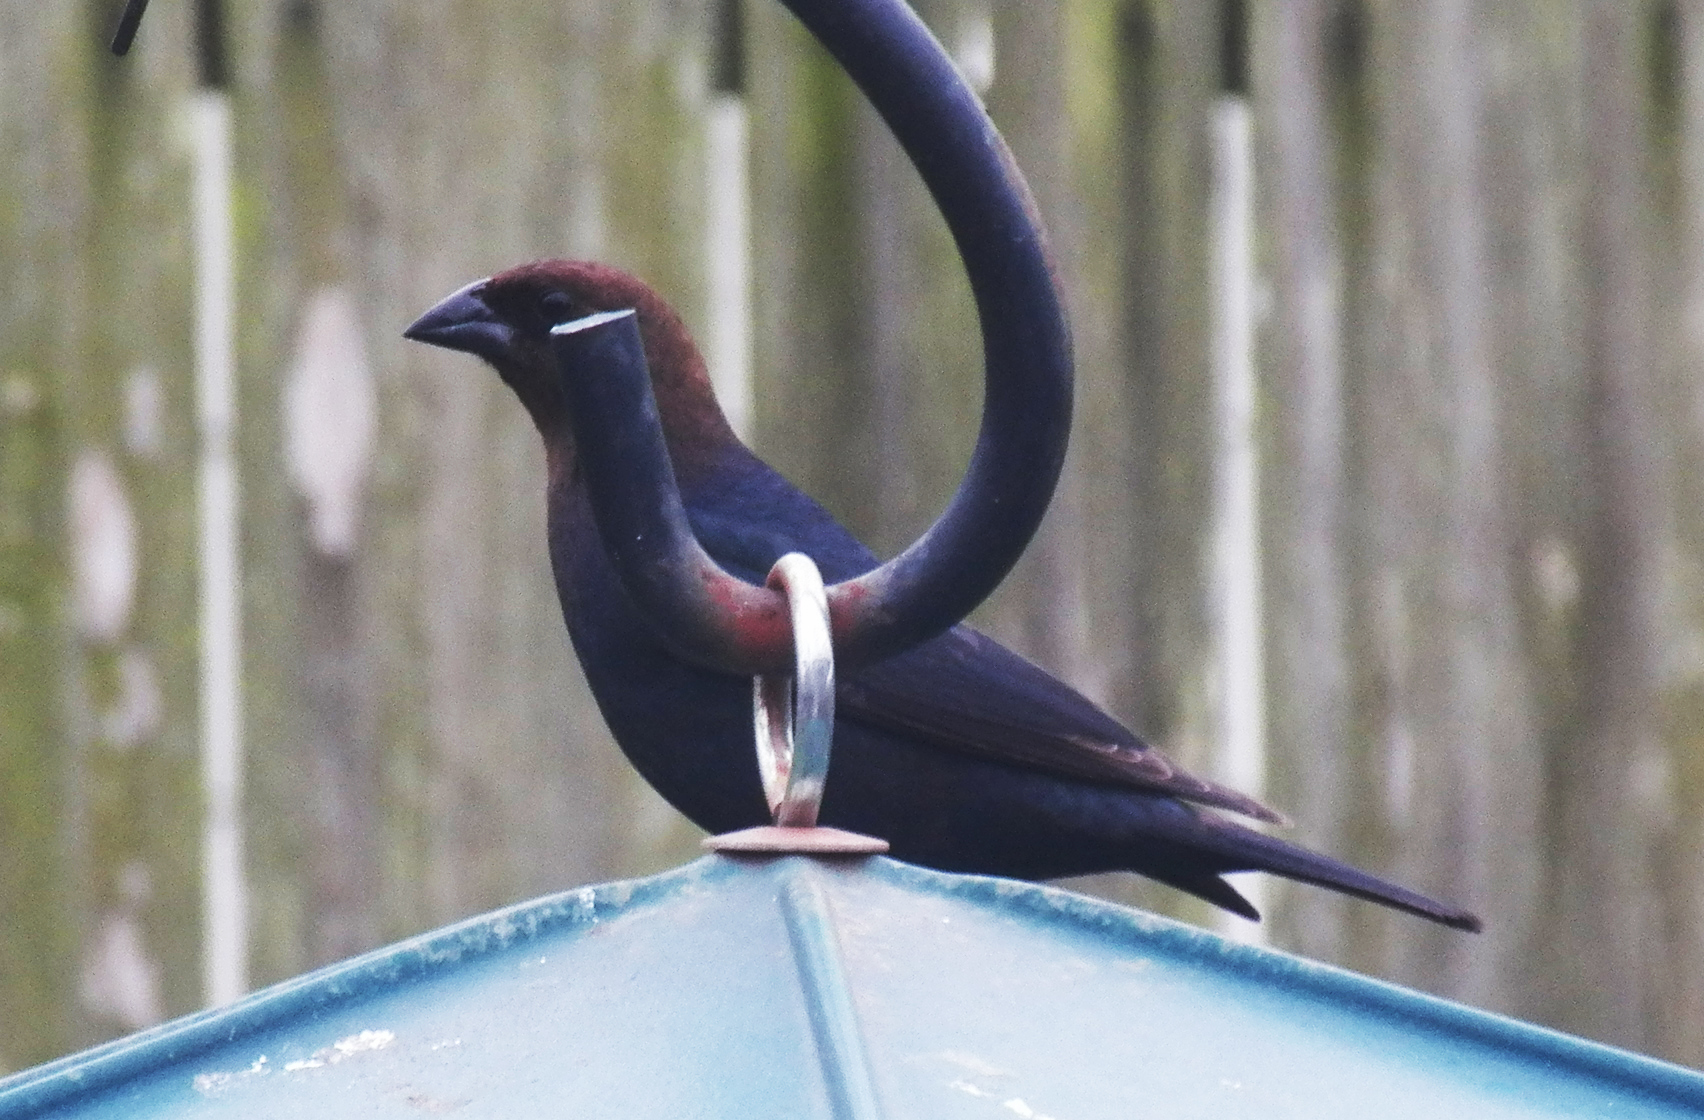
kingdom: Animalia
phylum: Chordata
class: Aves
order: Passeriformes
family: Icteridae
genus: Molothrus
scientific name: Molothrus ater
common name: Brown-headed cowbird
